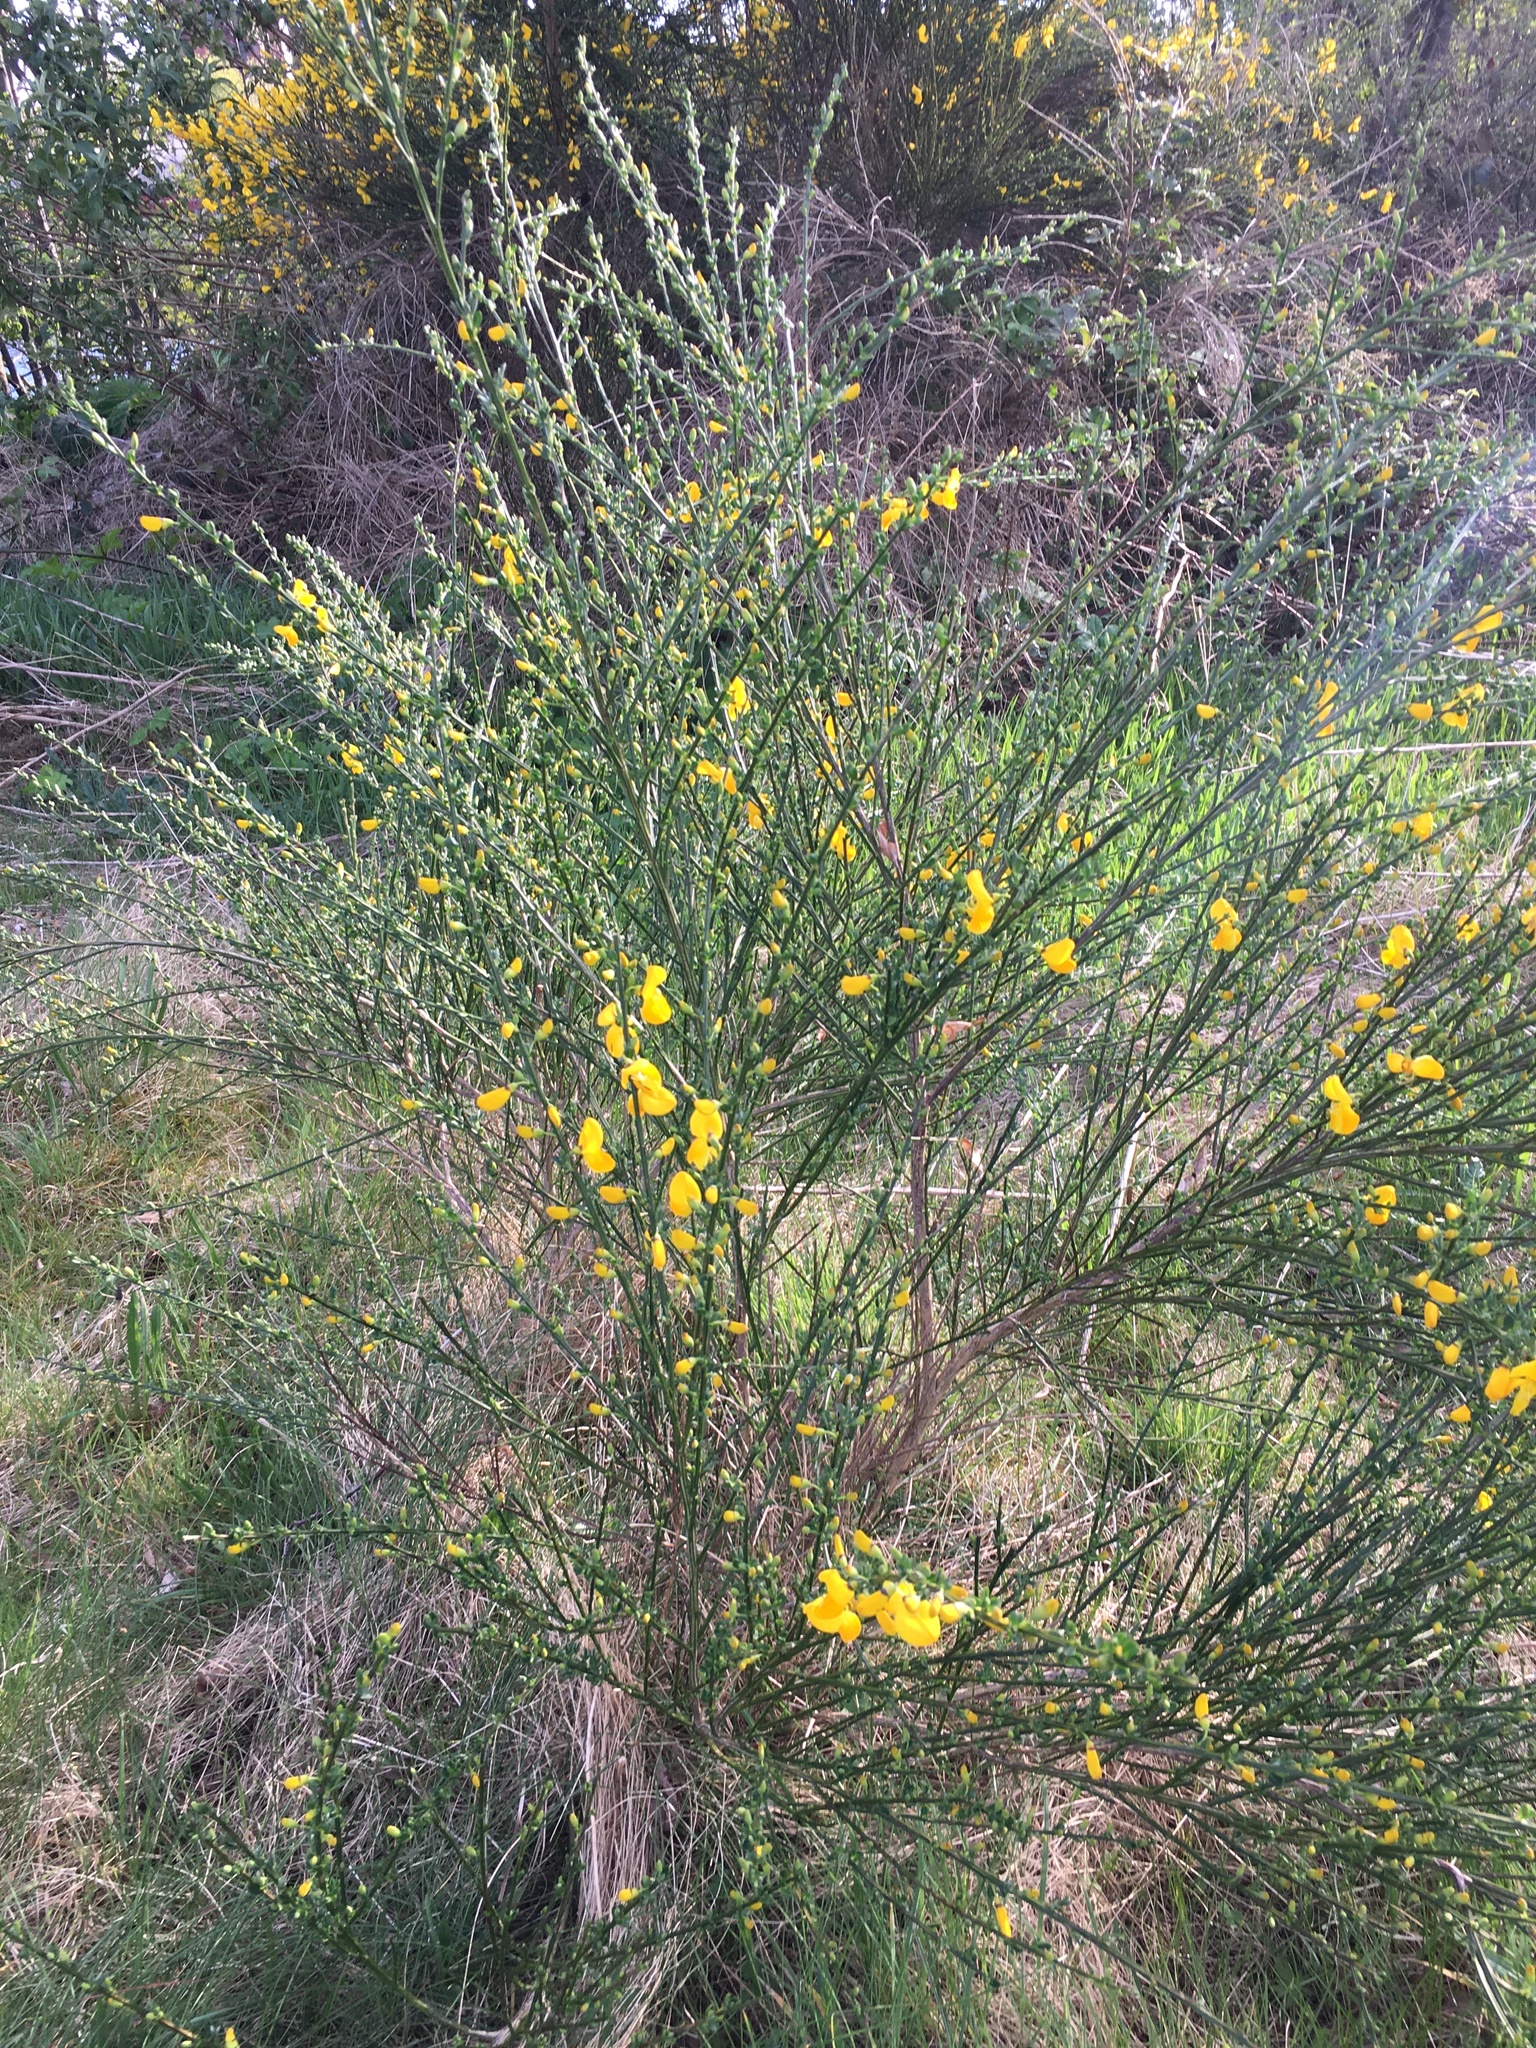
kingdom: Plantae
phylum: Tracheophyta
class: Magnoliopsida
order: Fabales
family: Fabaceae
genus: Cytisus
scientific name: Cytisus scoparius
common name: Scotch broom
